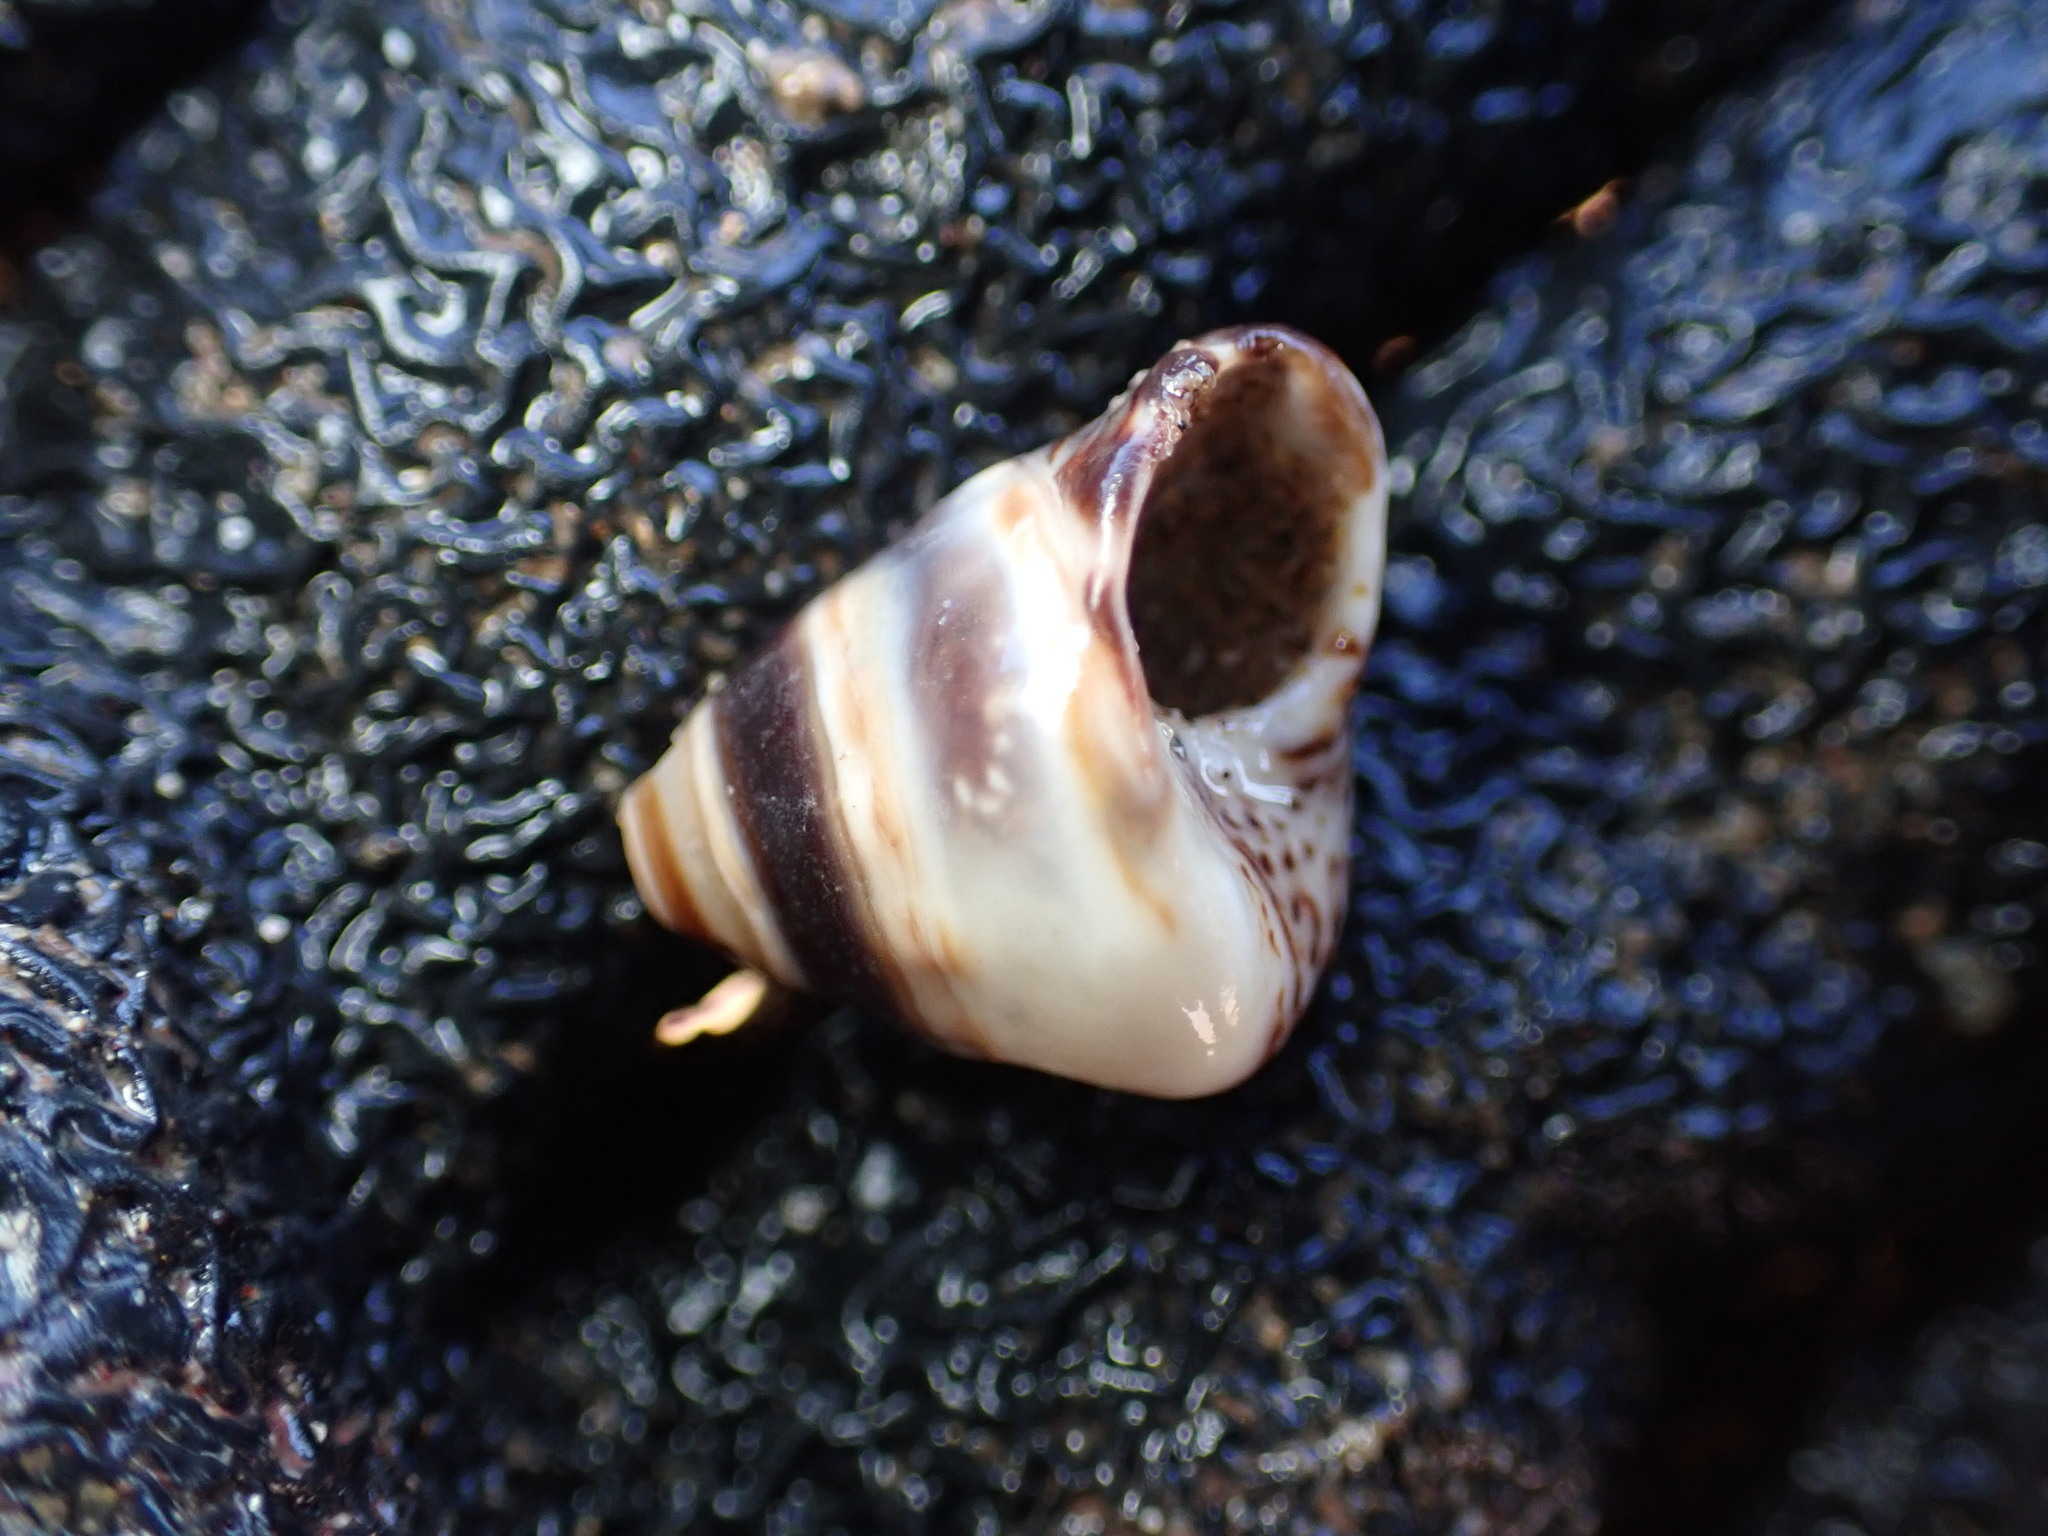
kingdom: Animalia
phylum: Mollusca
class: Gastropoda
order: Littorinimorpha
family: Littorinidae
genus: Bembicium
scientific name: Bembicium auratum
